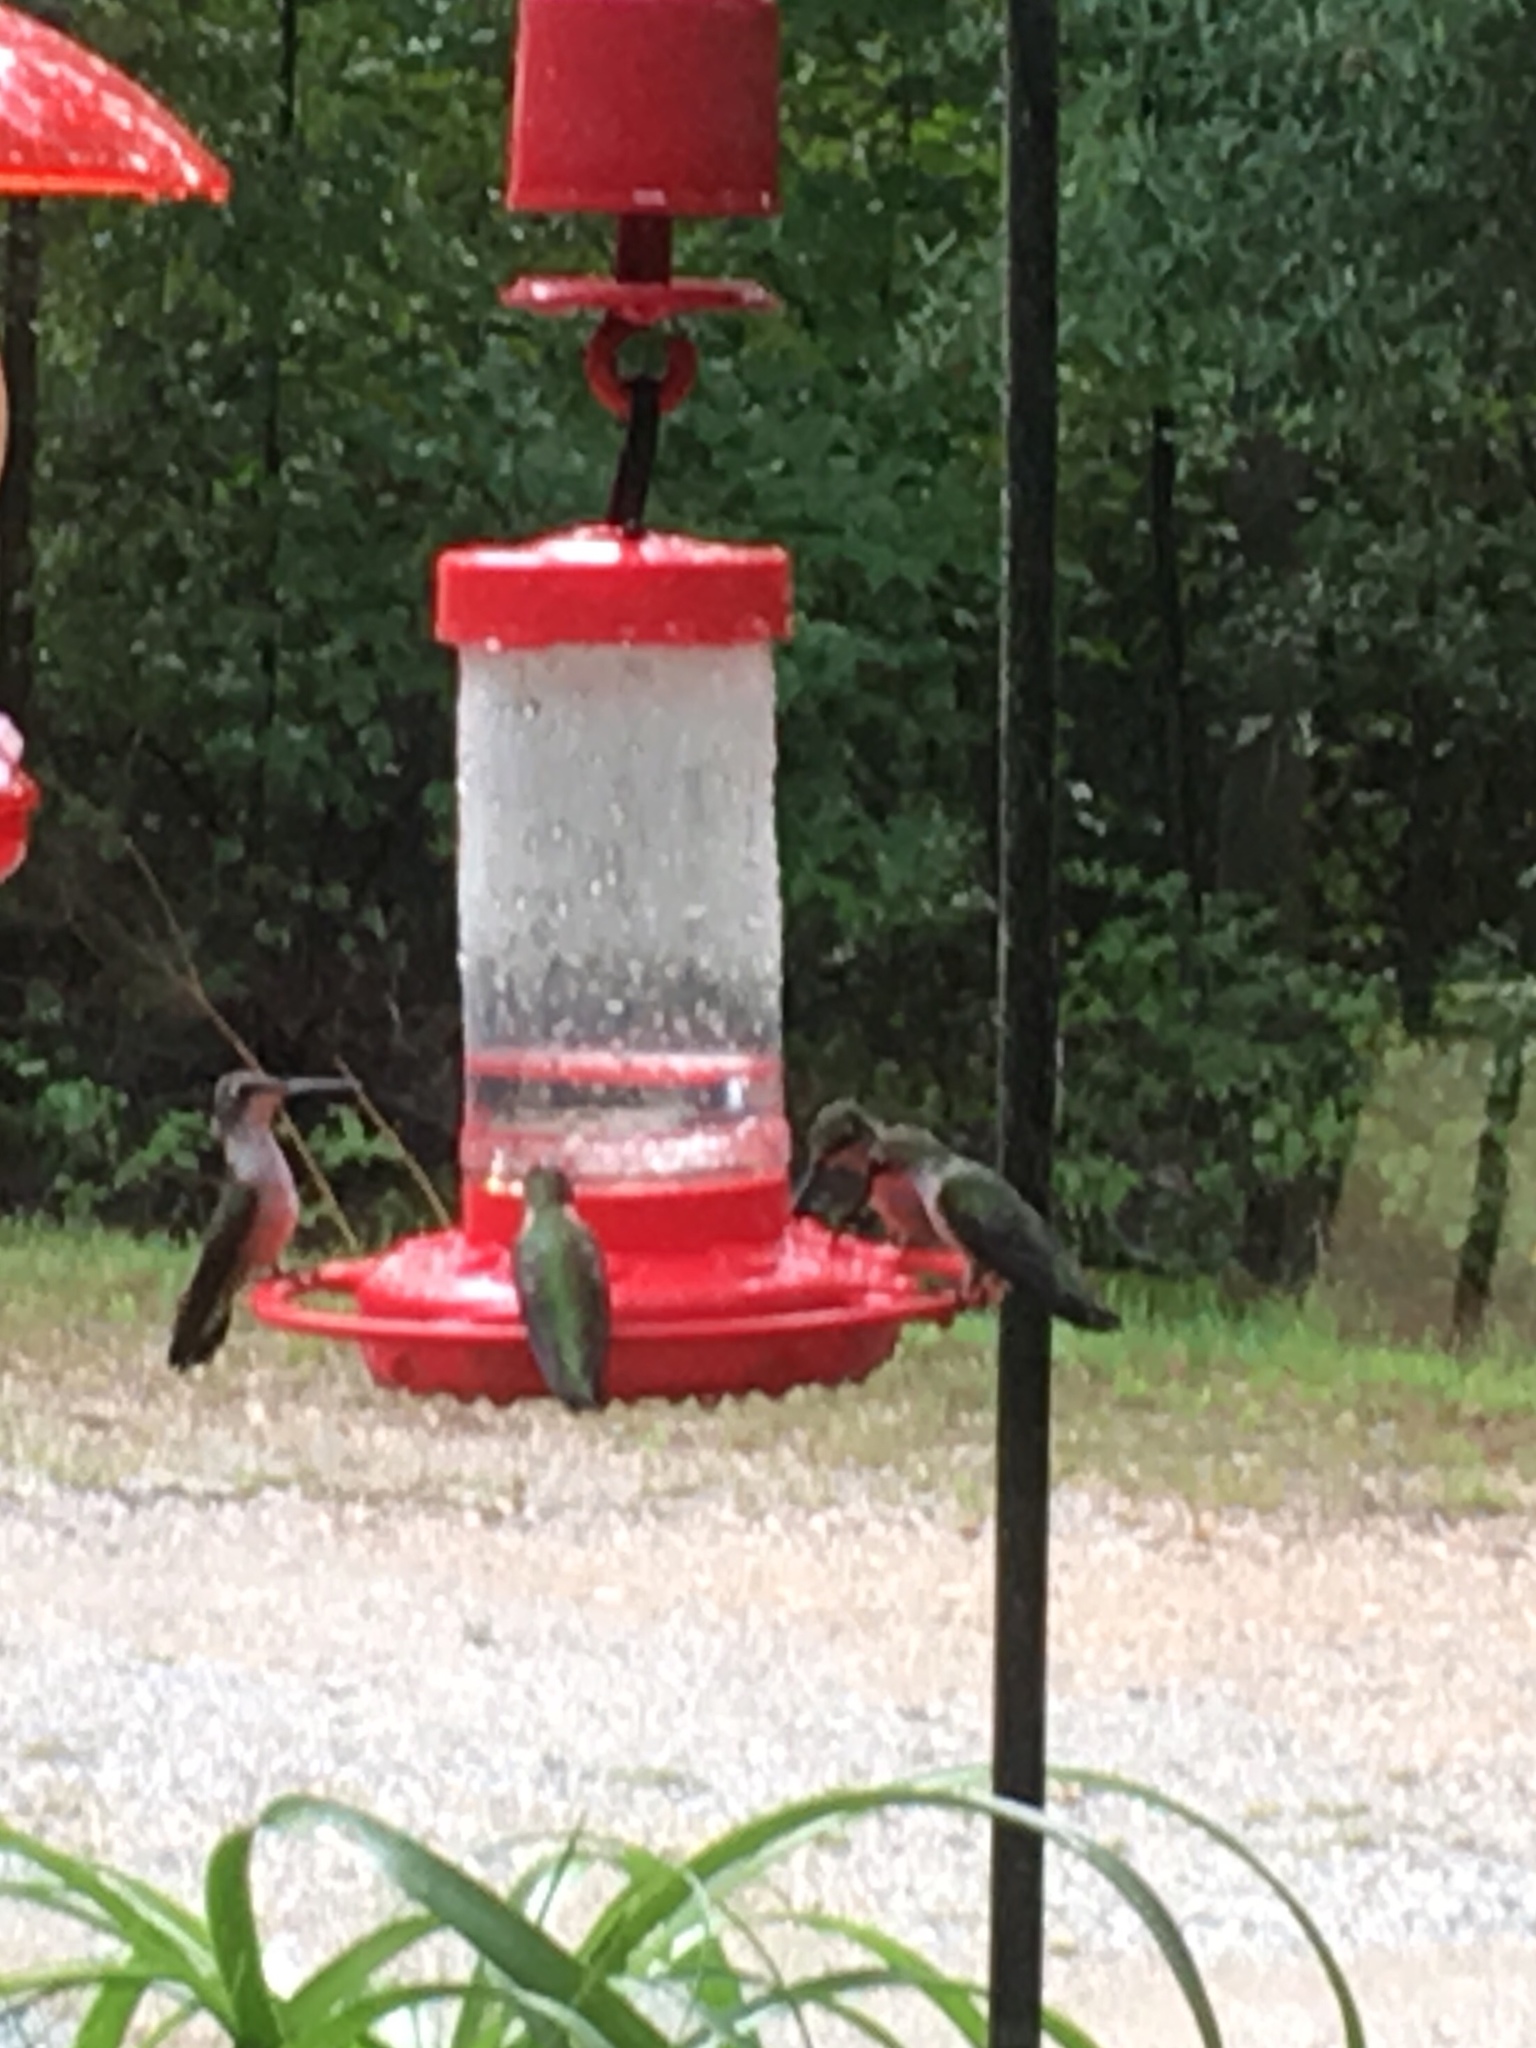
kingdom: Animalia
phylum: Chordata
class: Aves
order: Apodiformes
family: Trochilidae
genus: Archilochus
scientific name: Archilochus colubris
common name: Ruby-throated hummingbird
